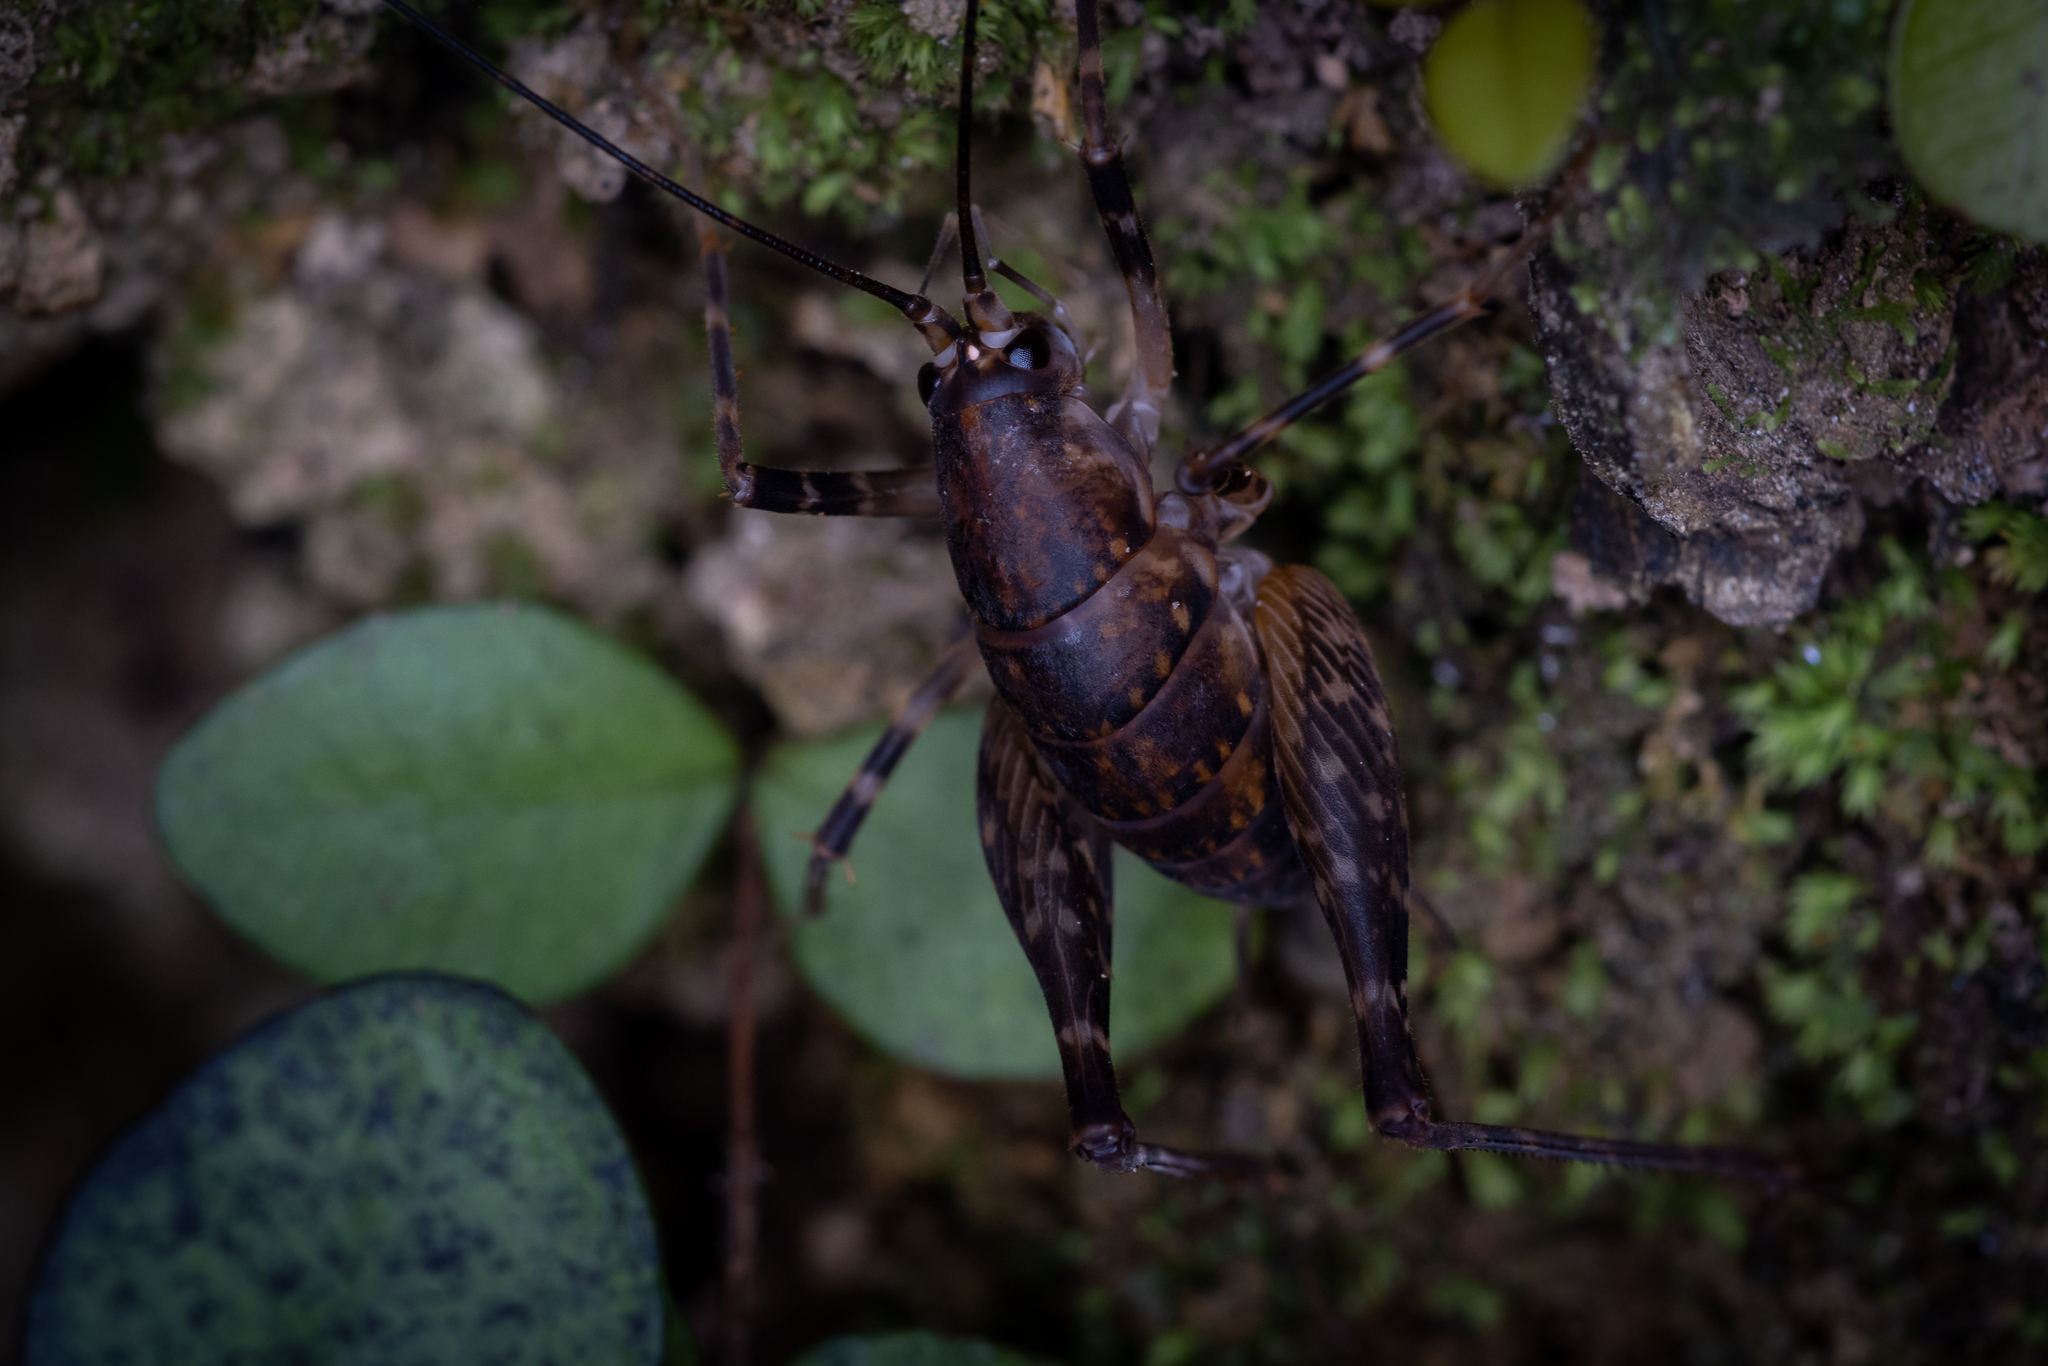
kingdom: Animalia
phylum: Arthropoda
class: Insecta
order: Orthoptera
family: Rhaphidophoridae
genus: Miotopus
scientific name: Miotopus diversus
